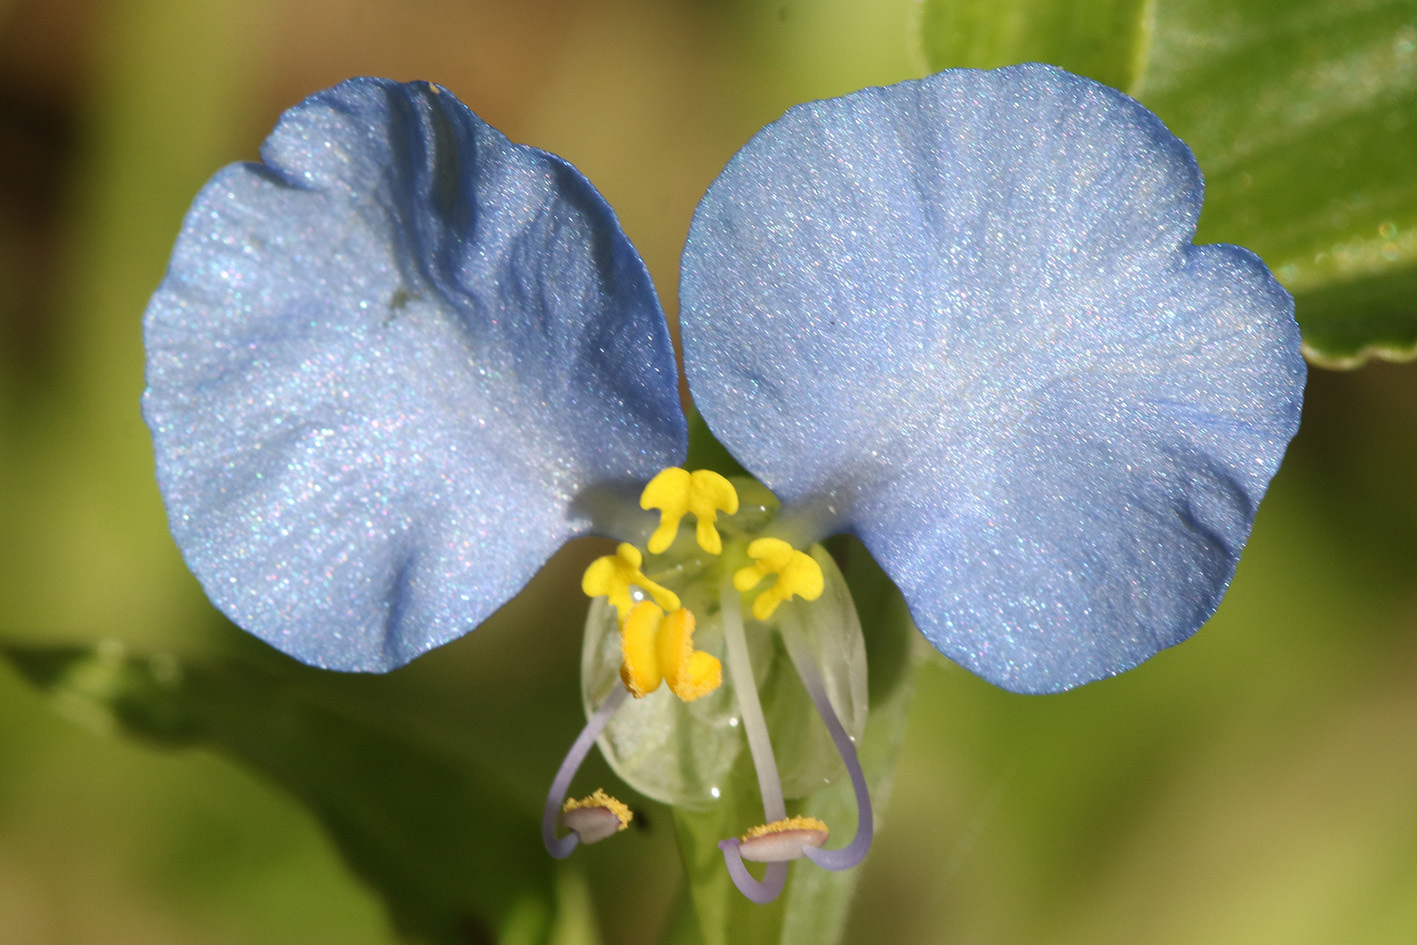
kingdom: Plantae
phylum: Tracheophyta
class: Liliopsida
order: Commelinales
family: Commelinaceae
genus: Commelina
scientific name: Commelina erecta
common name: Blousel blommetjie
